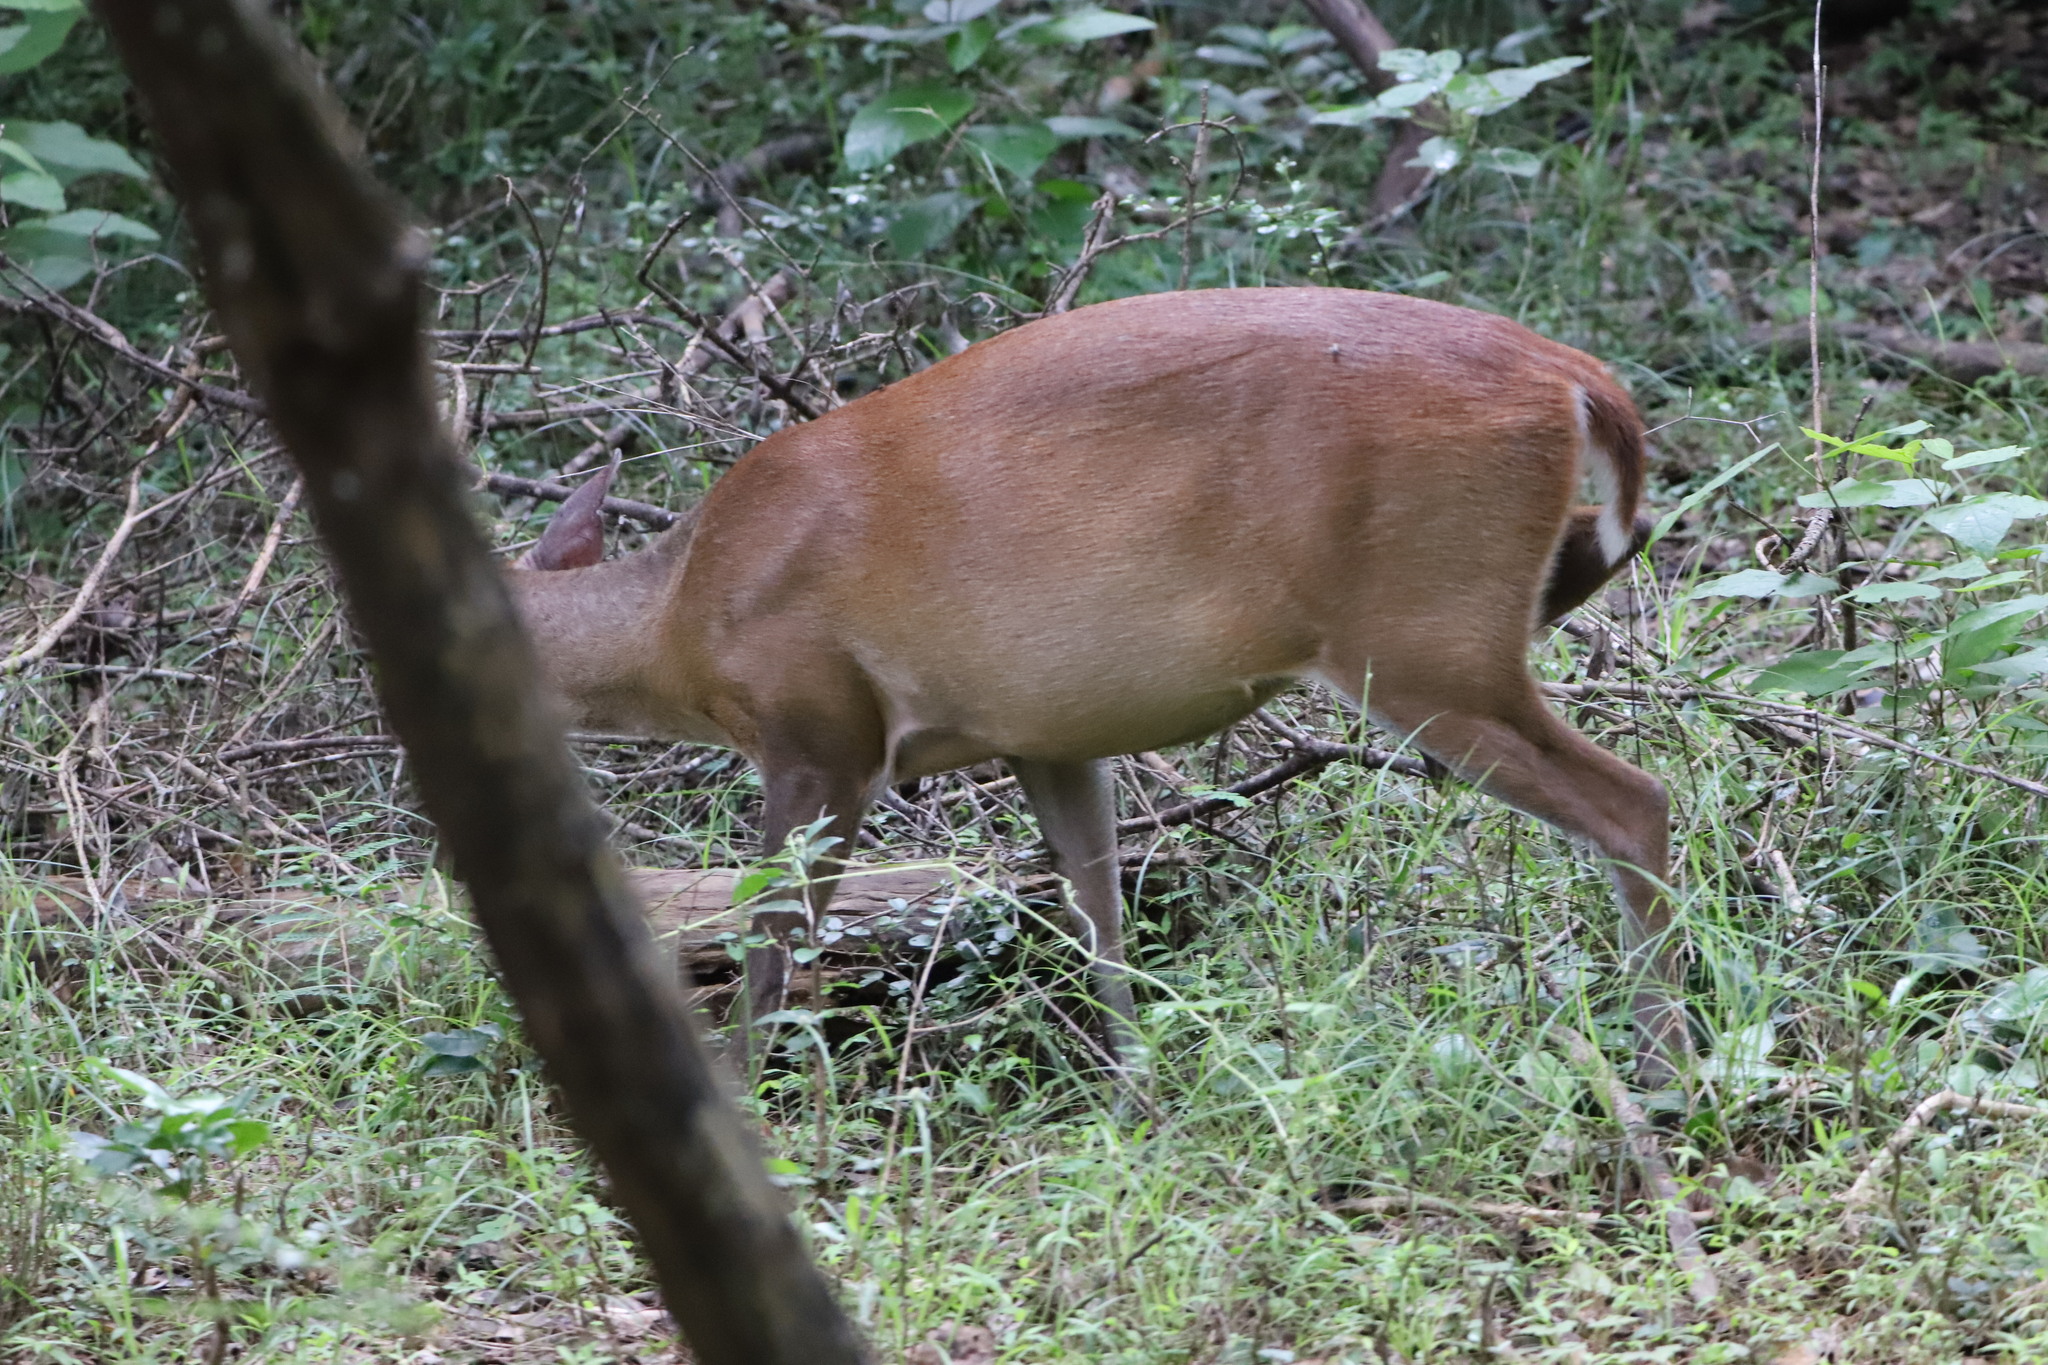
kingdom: Animalia
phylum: Chordata
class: Mammalia
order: Artiodactyla
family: Cervidae
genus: Muntiacus
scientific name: Muntiacus muntjak
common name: Indian muntjac
